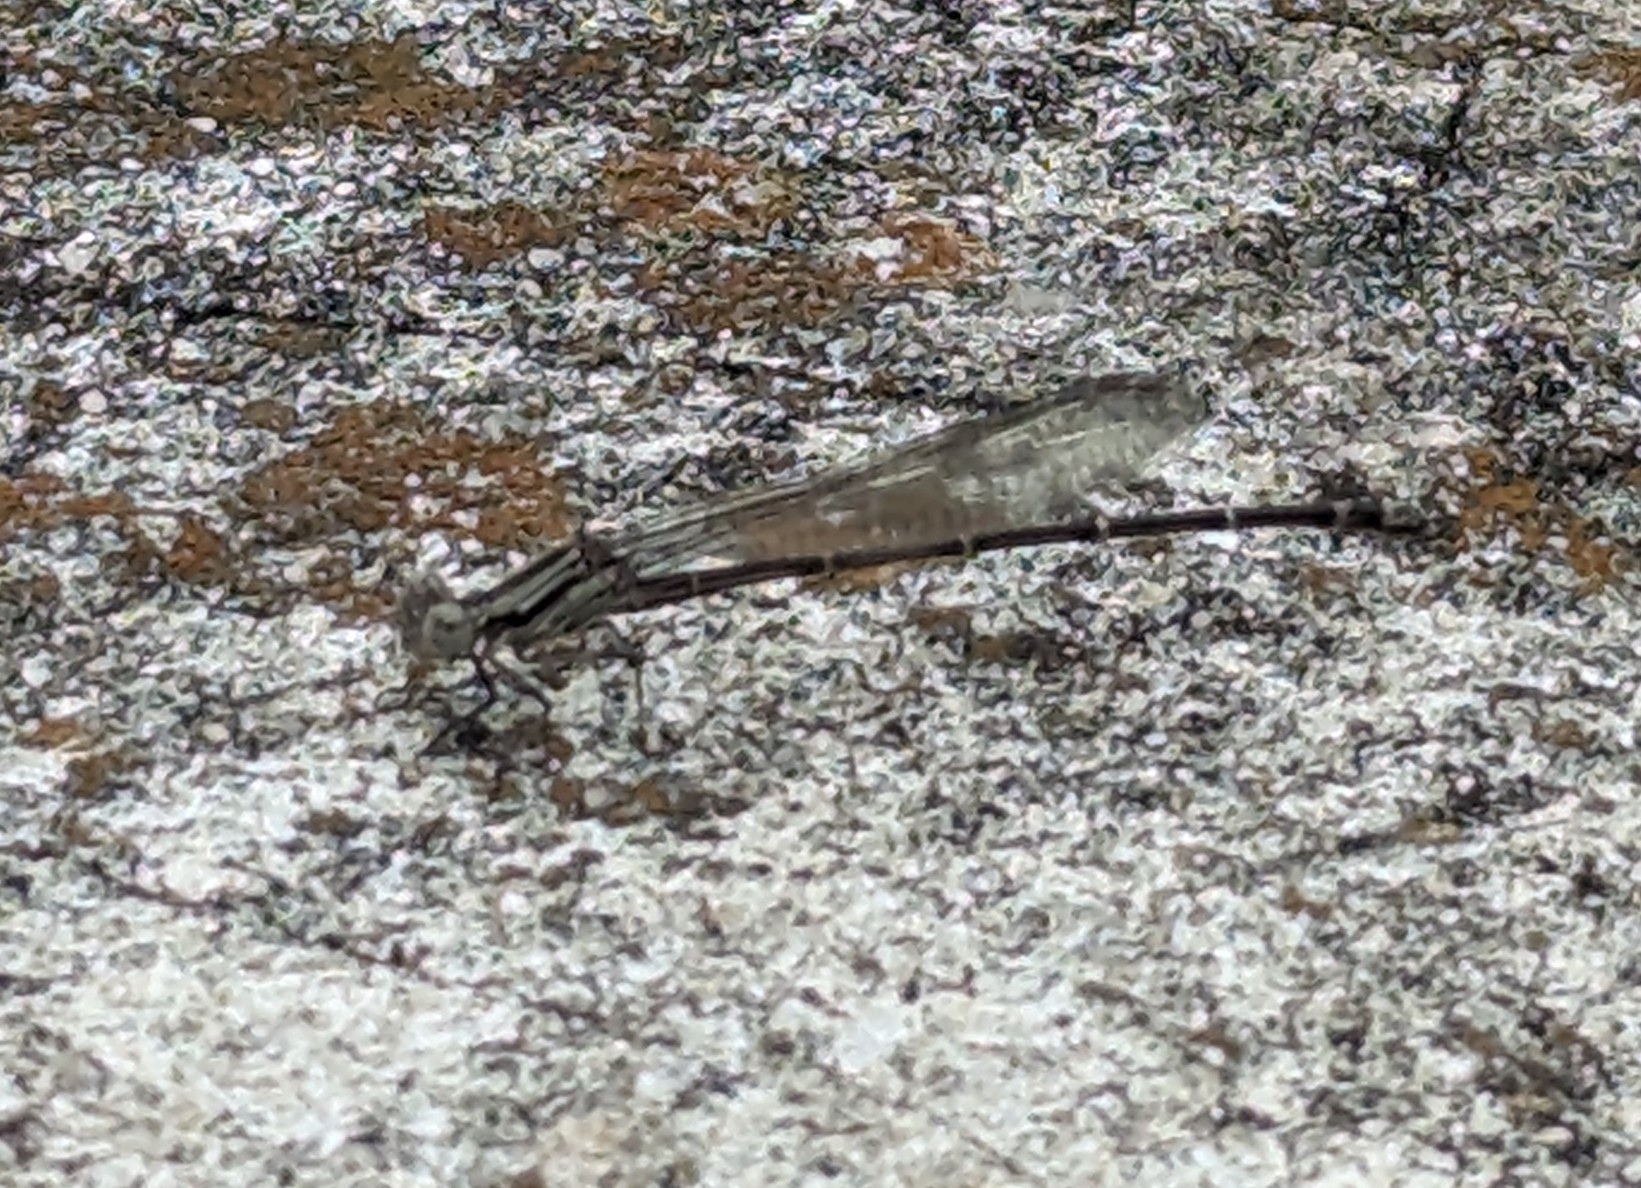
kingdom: Animalia
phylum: Arthropoda
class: Insecta
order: Odonata
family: Coenagrionidae
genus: Argia
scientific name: Argia translata
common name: Dusky dancer
